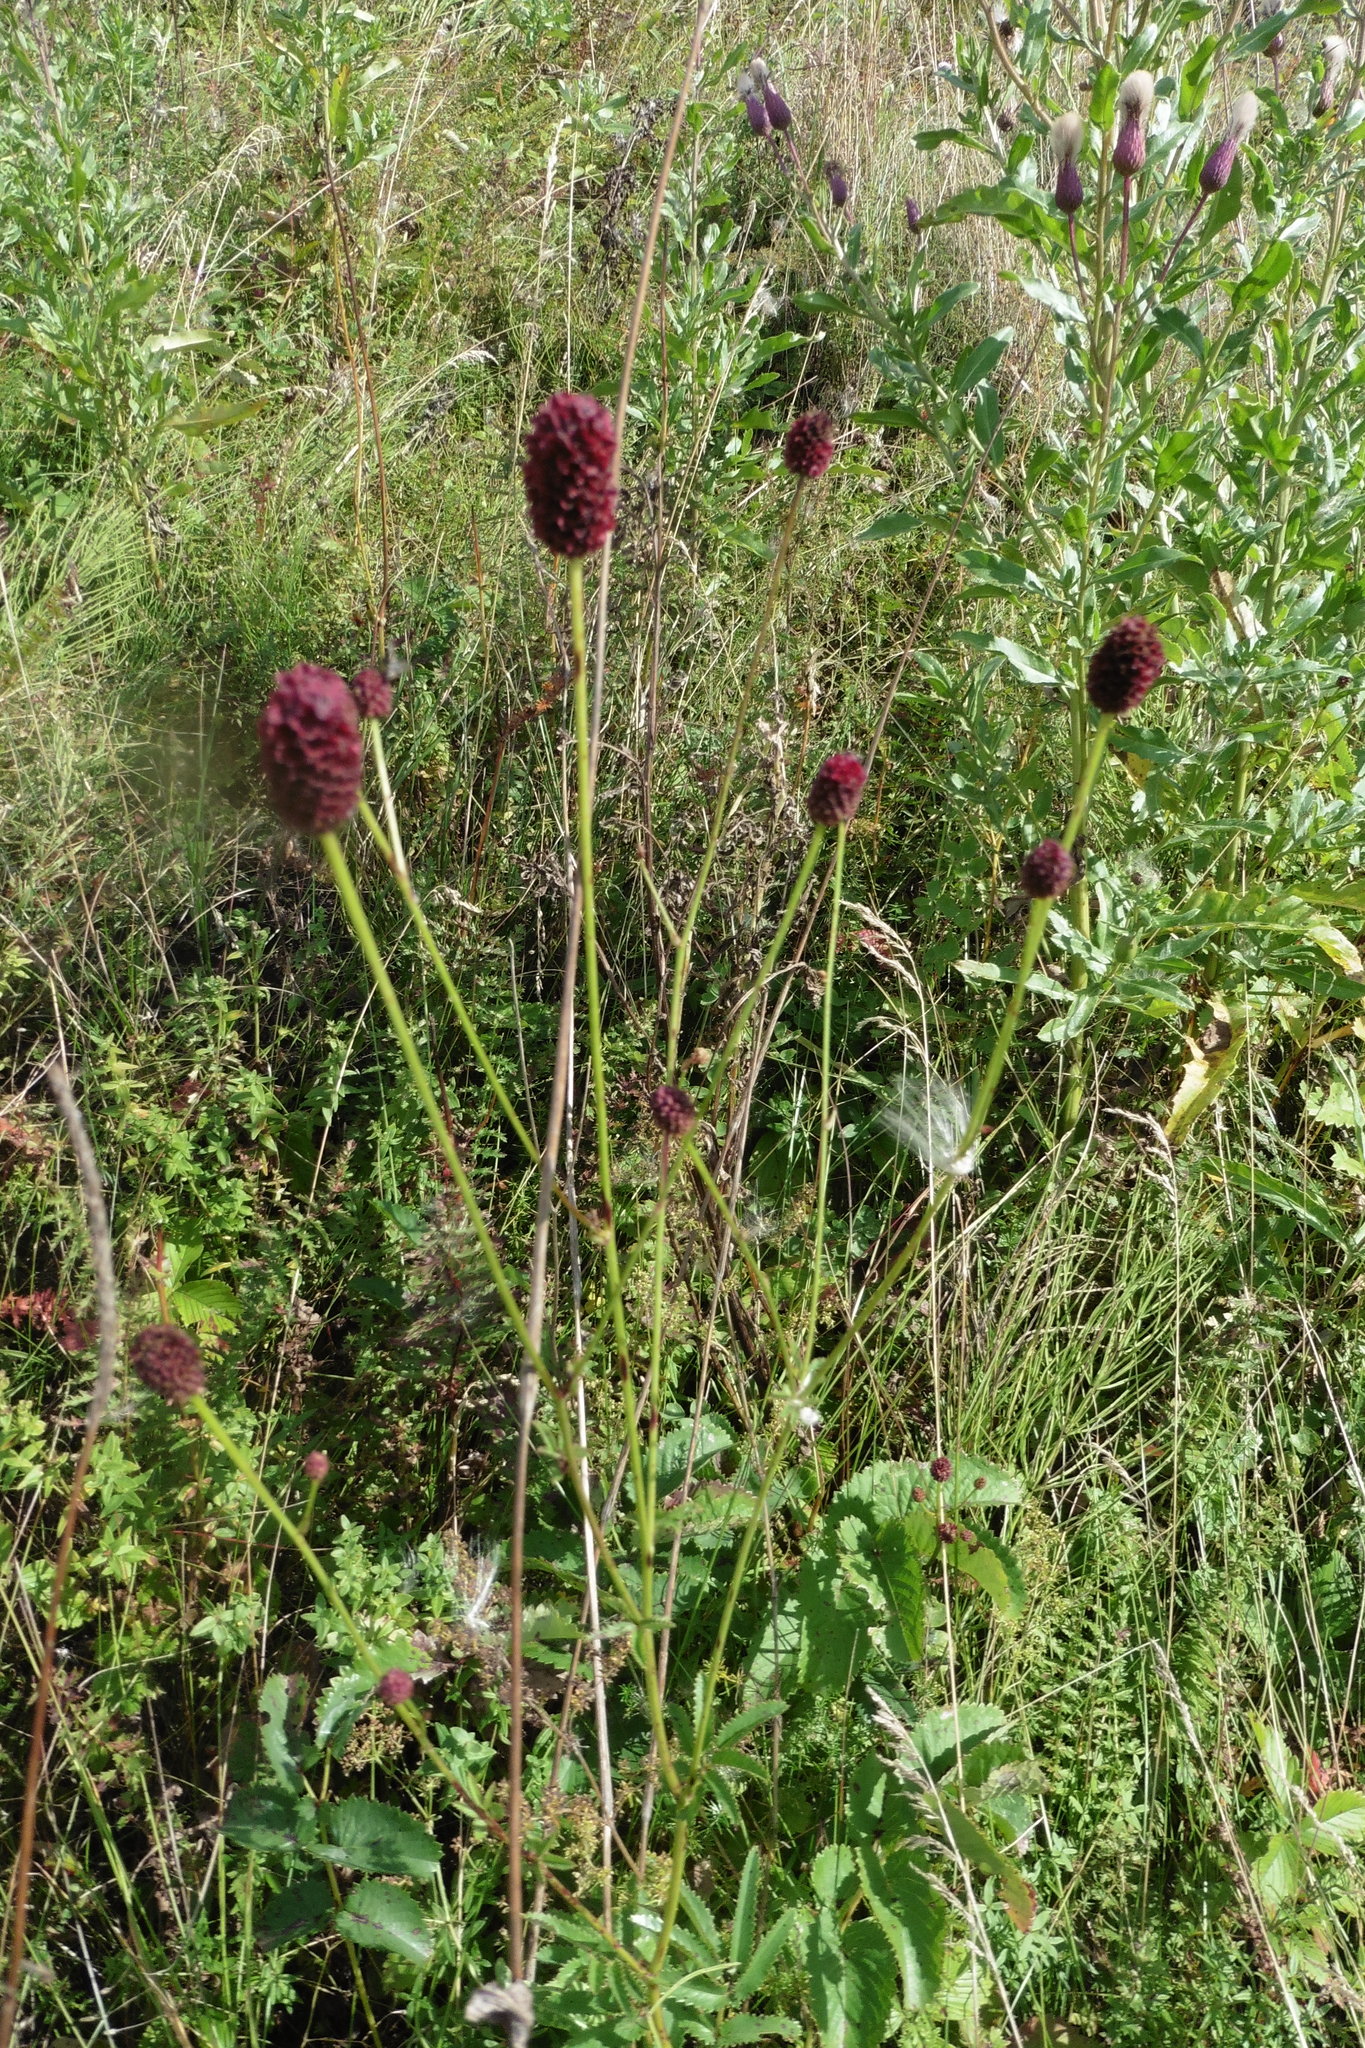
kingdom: Plantae
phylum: Tracheophyta
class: Magnoliopsida
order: Rosales
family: Rosaceae
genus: Sanguisorba
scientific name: Sanguisorba officinalis
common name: Great burnet
